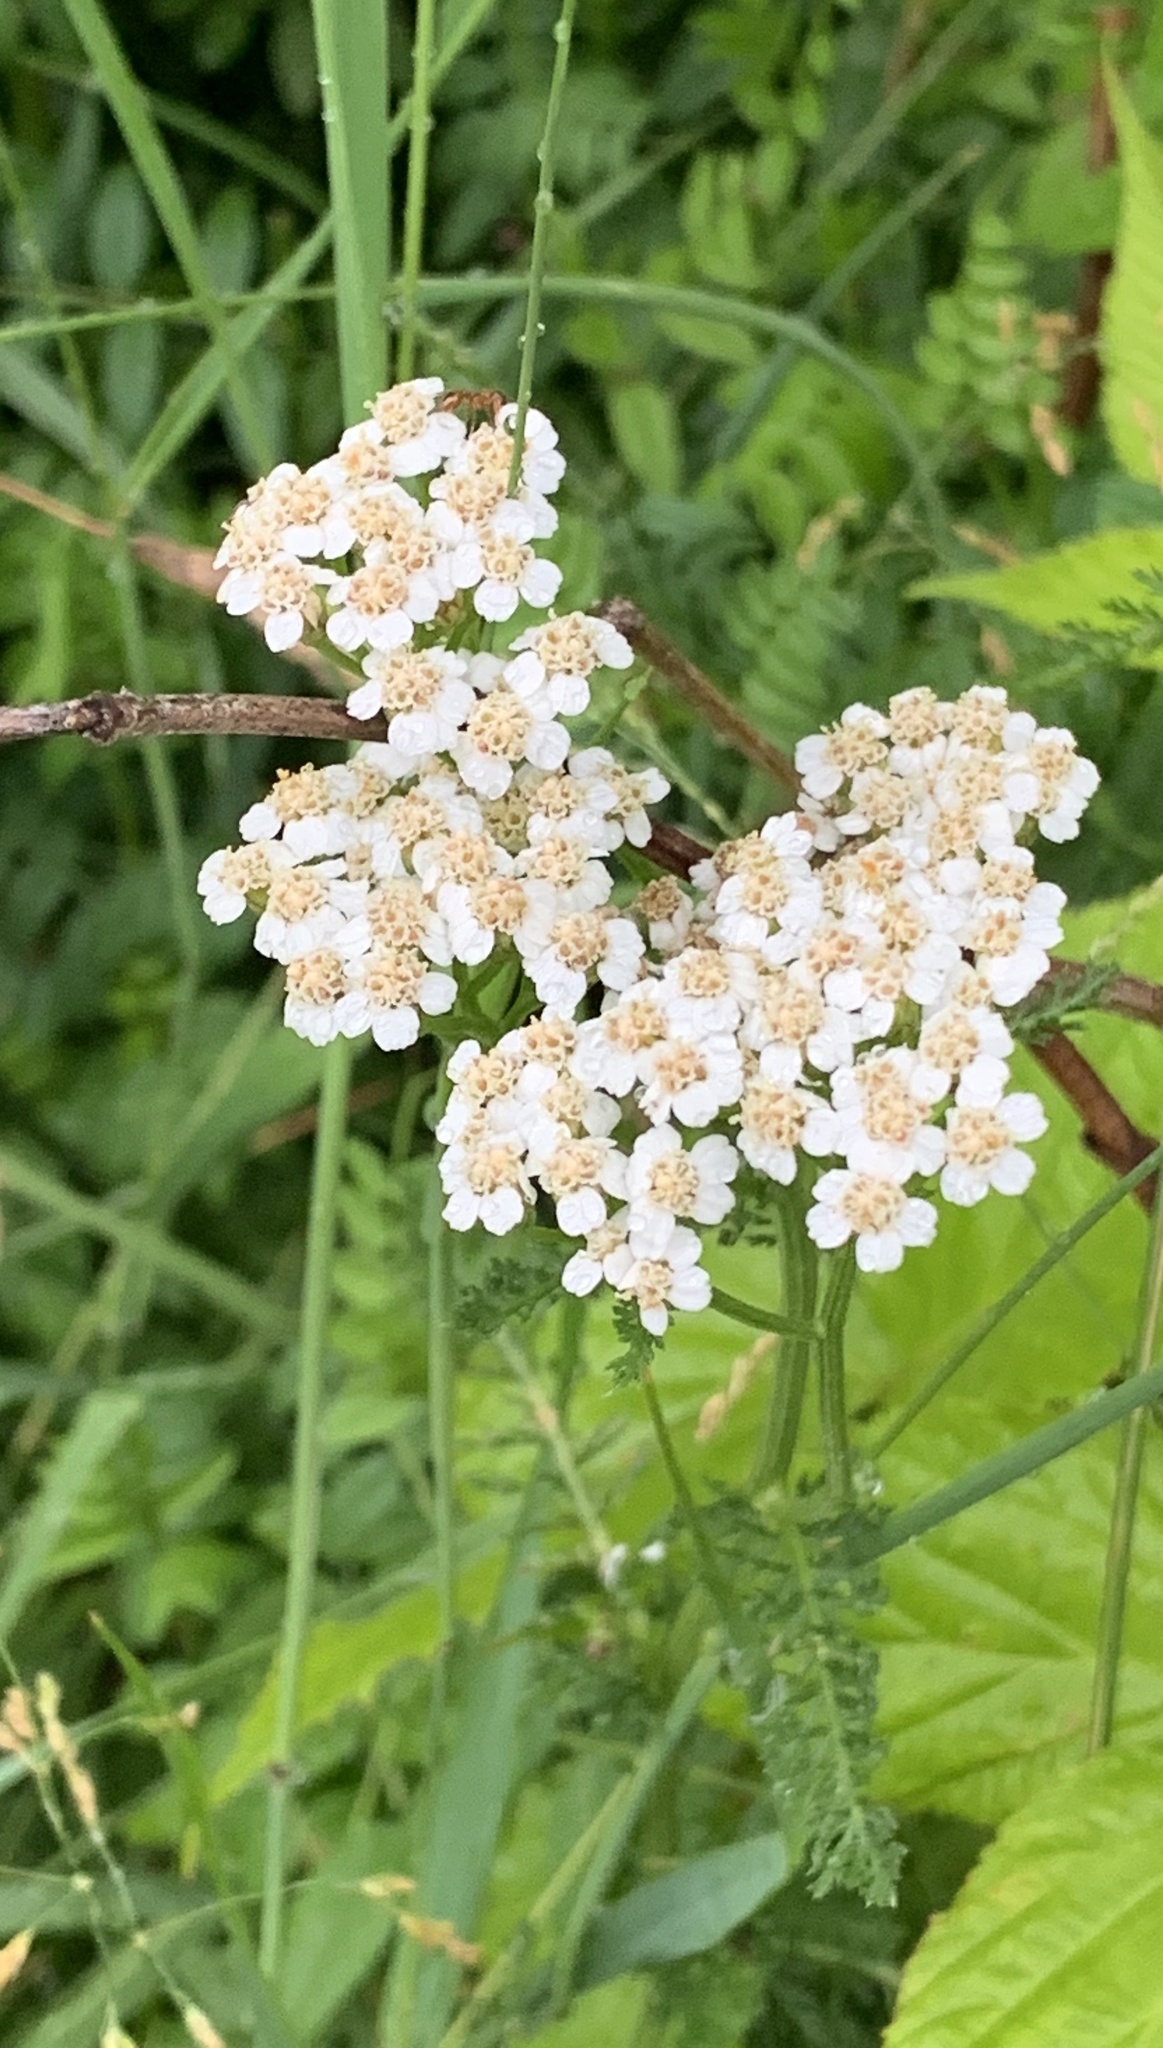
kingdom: Plantae
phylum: Tracheophyta
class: Magnoliopsida
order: Asterales
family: Asteraceae
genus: Achillea
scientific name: Achillea millefolium
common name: Yarrow
